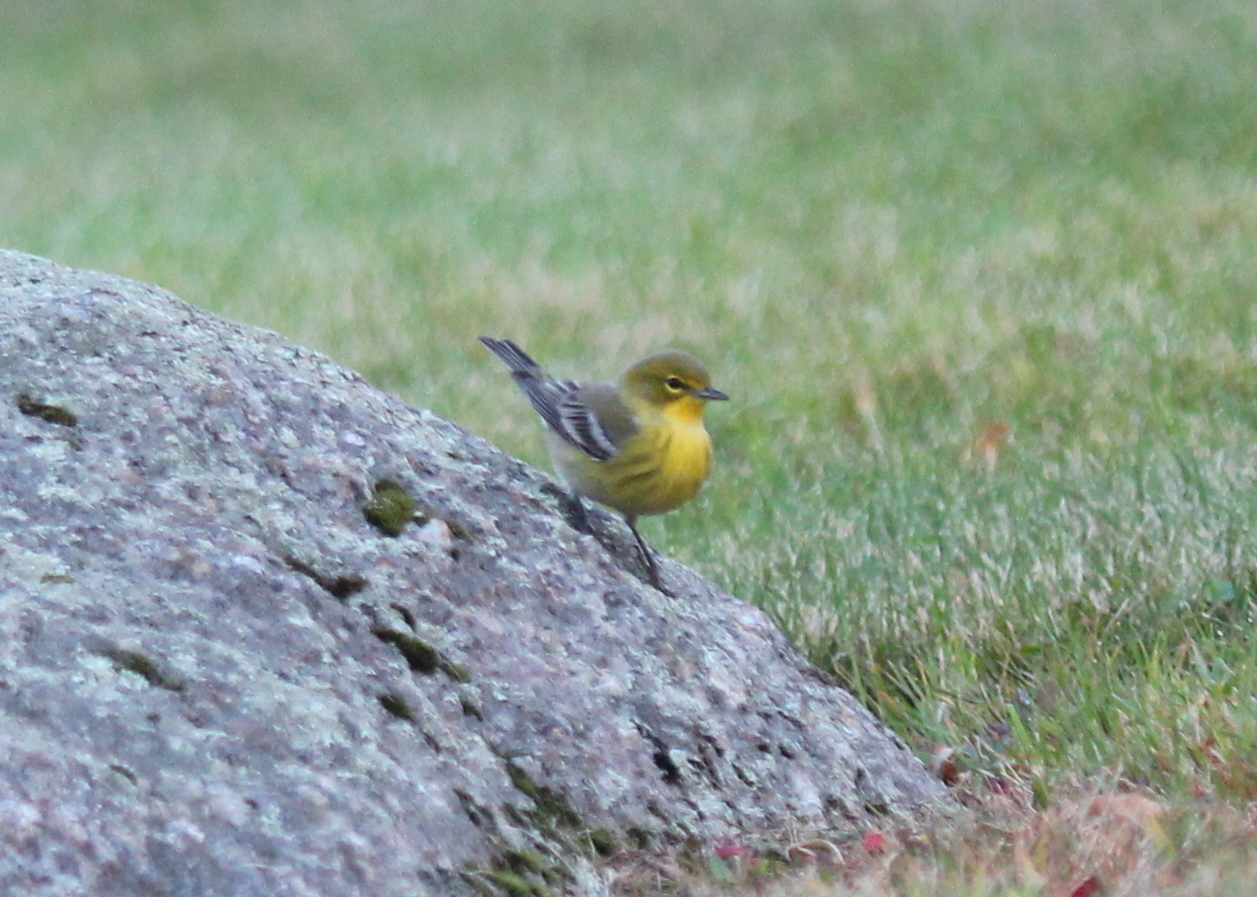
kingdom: Animalia
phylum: Chordata
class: Aves
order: Passeriformes
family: Parulidae
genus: Setophaga
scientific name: Setophaga pinus
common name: Pine warbler
